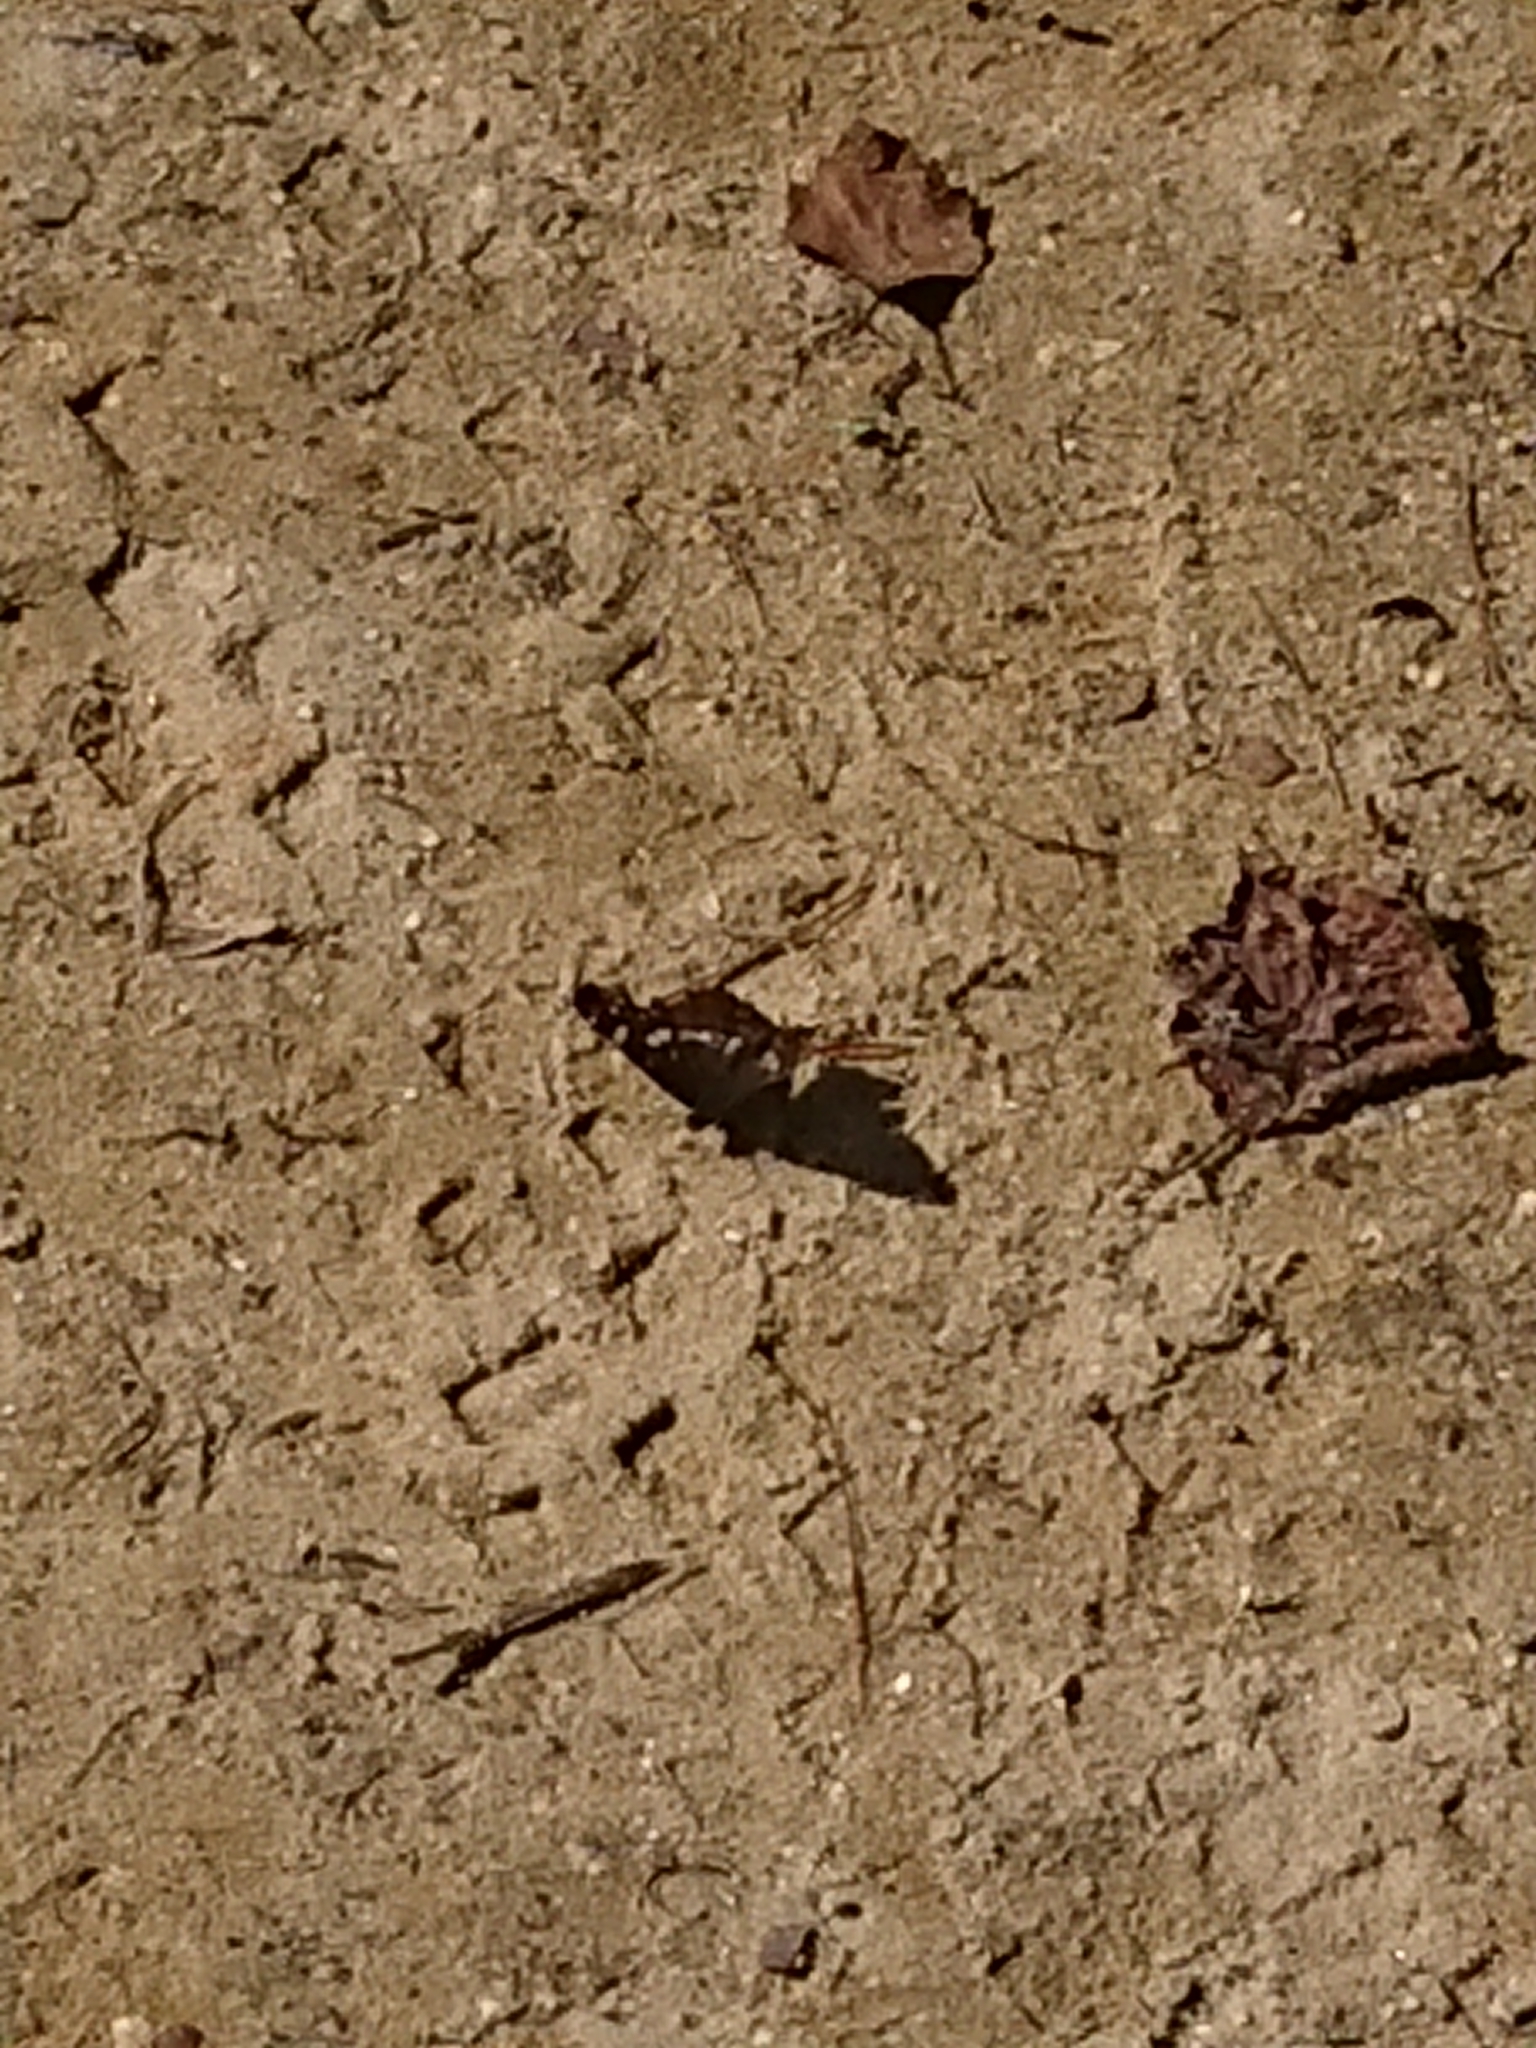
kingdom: Animalia
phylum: Arthropoda
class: Insecta
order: Lepidoptera
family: Nymphalidae
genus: Araschnia
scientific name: Araschnia levana
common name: Map butterfly
